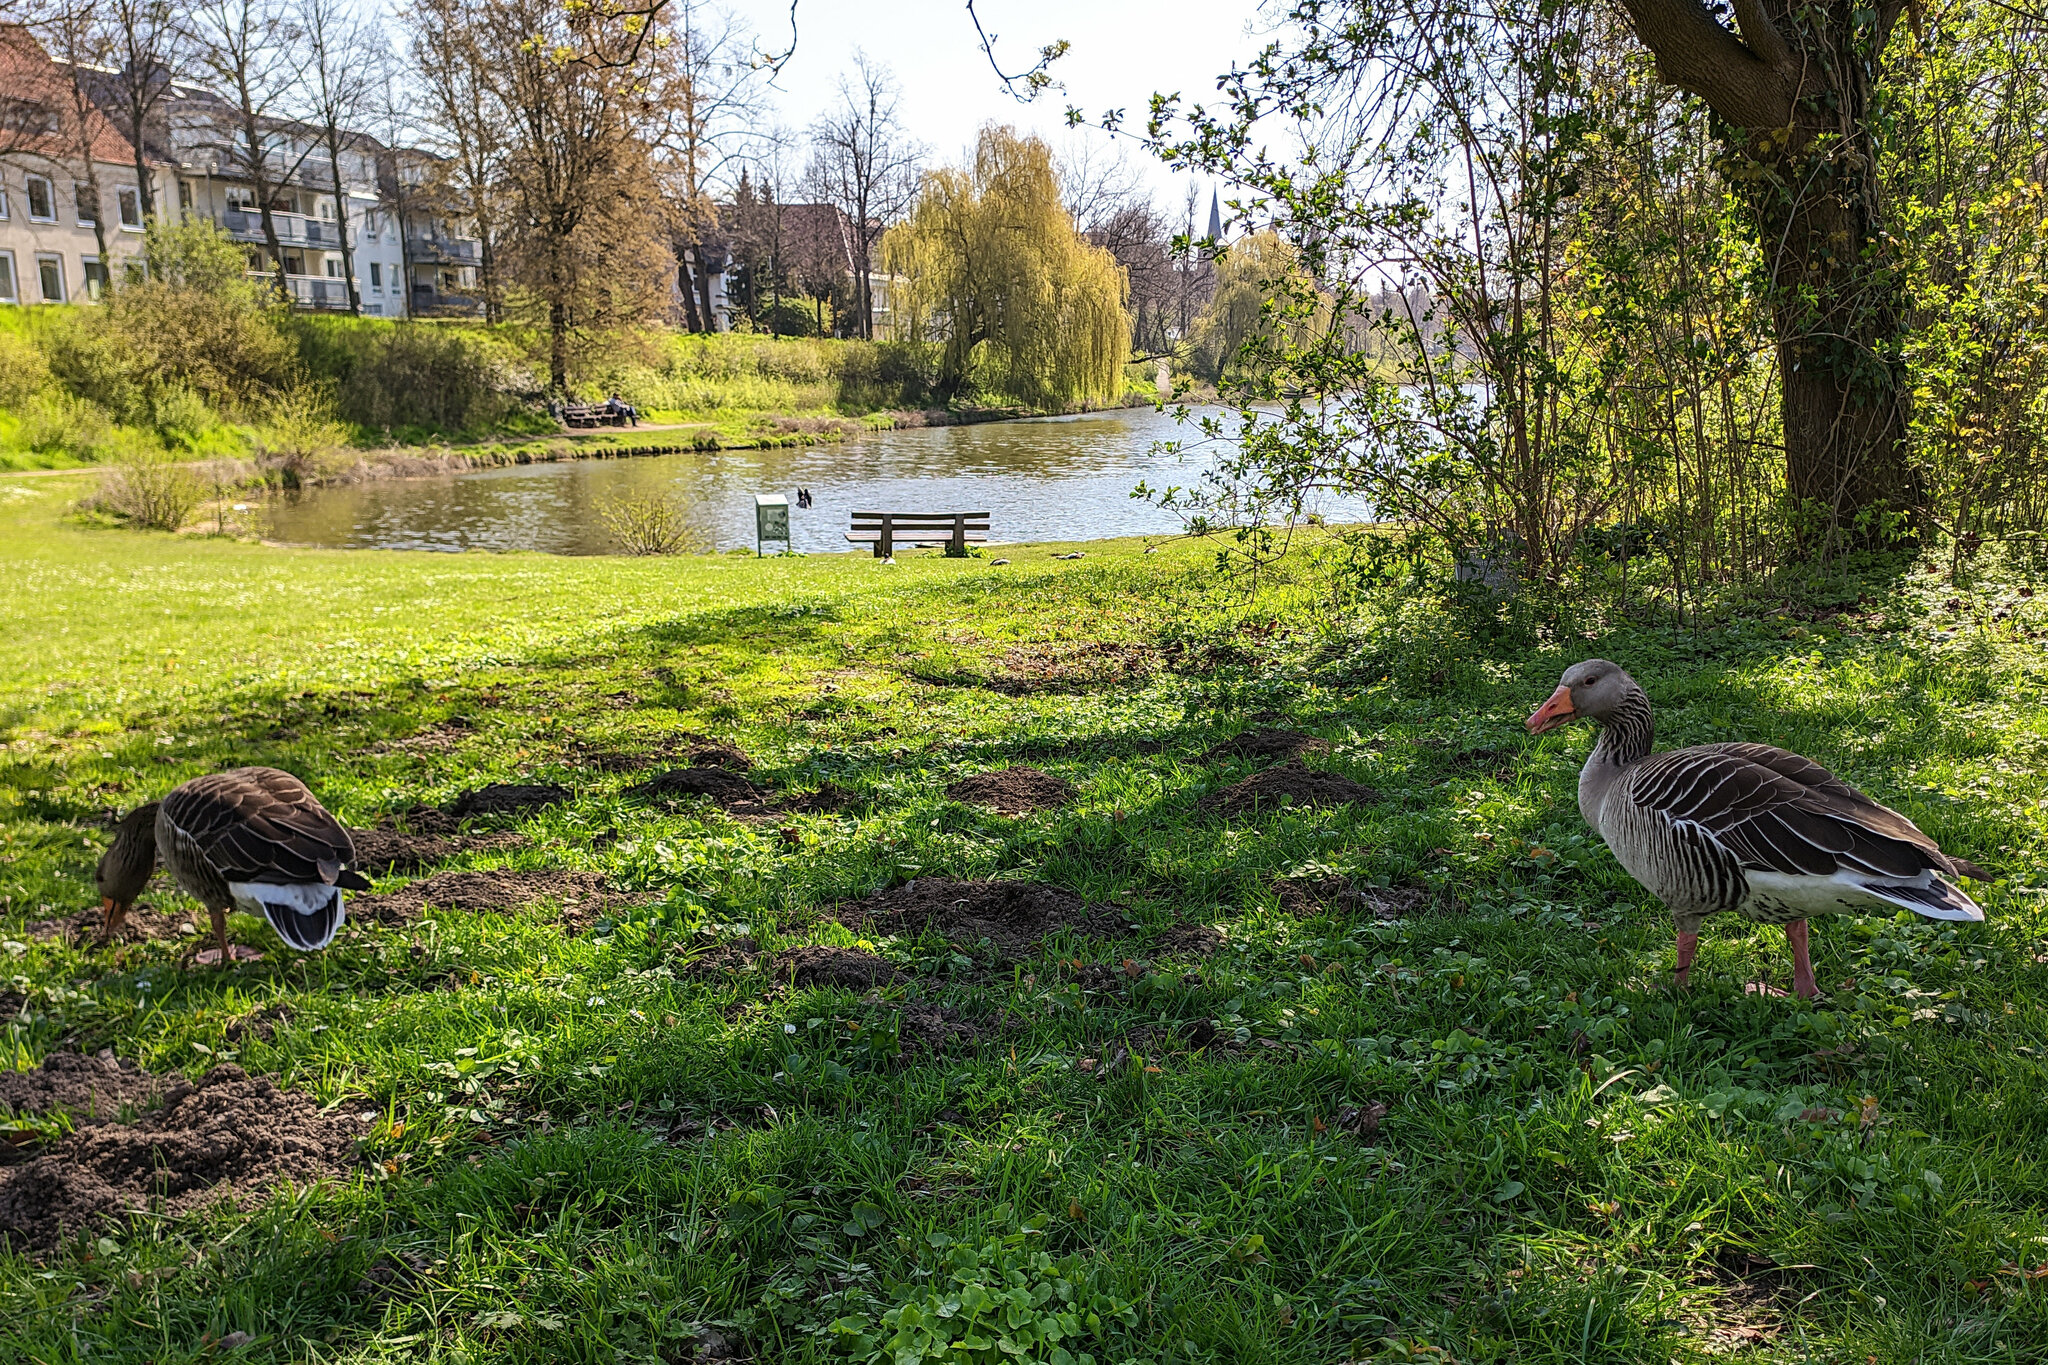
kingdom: Animalia
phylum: Chordata
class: Aves
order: Anseriformes
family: Anatidae
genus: Anser
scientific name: Anser anser
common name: Greylag goose
